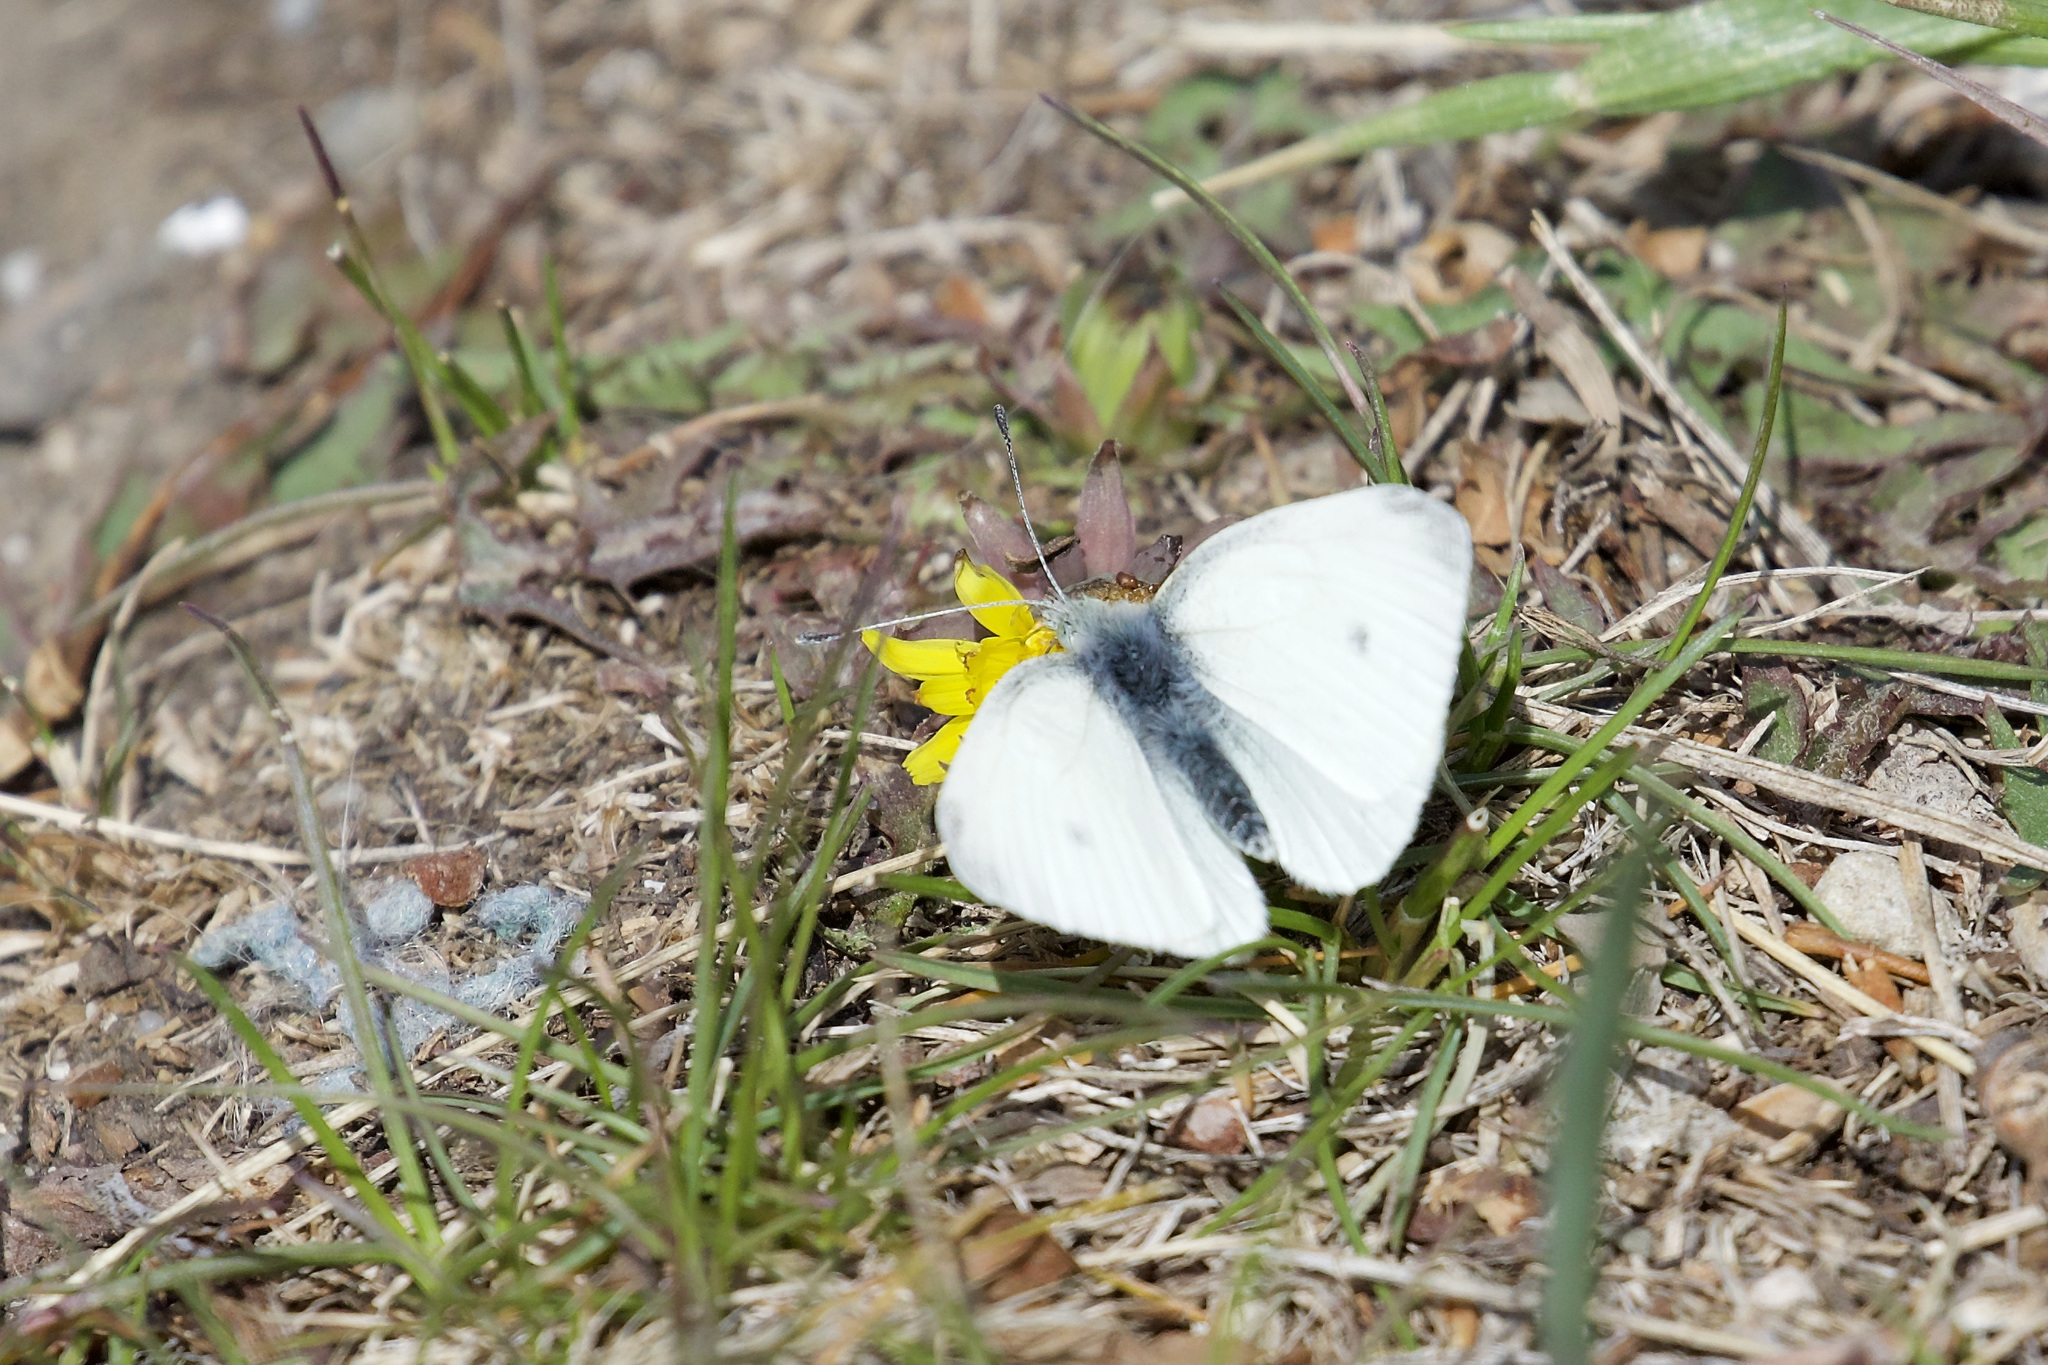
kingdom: Animalia
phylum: Arthropoda
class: Insecta
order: Lepidoptera
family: Pieridae
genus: Pieris
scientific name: Pieris rapae
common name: Small white
